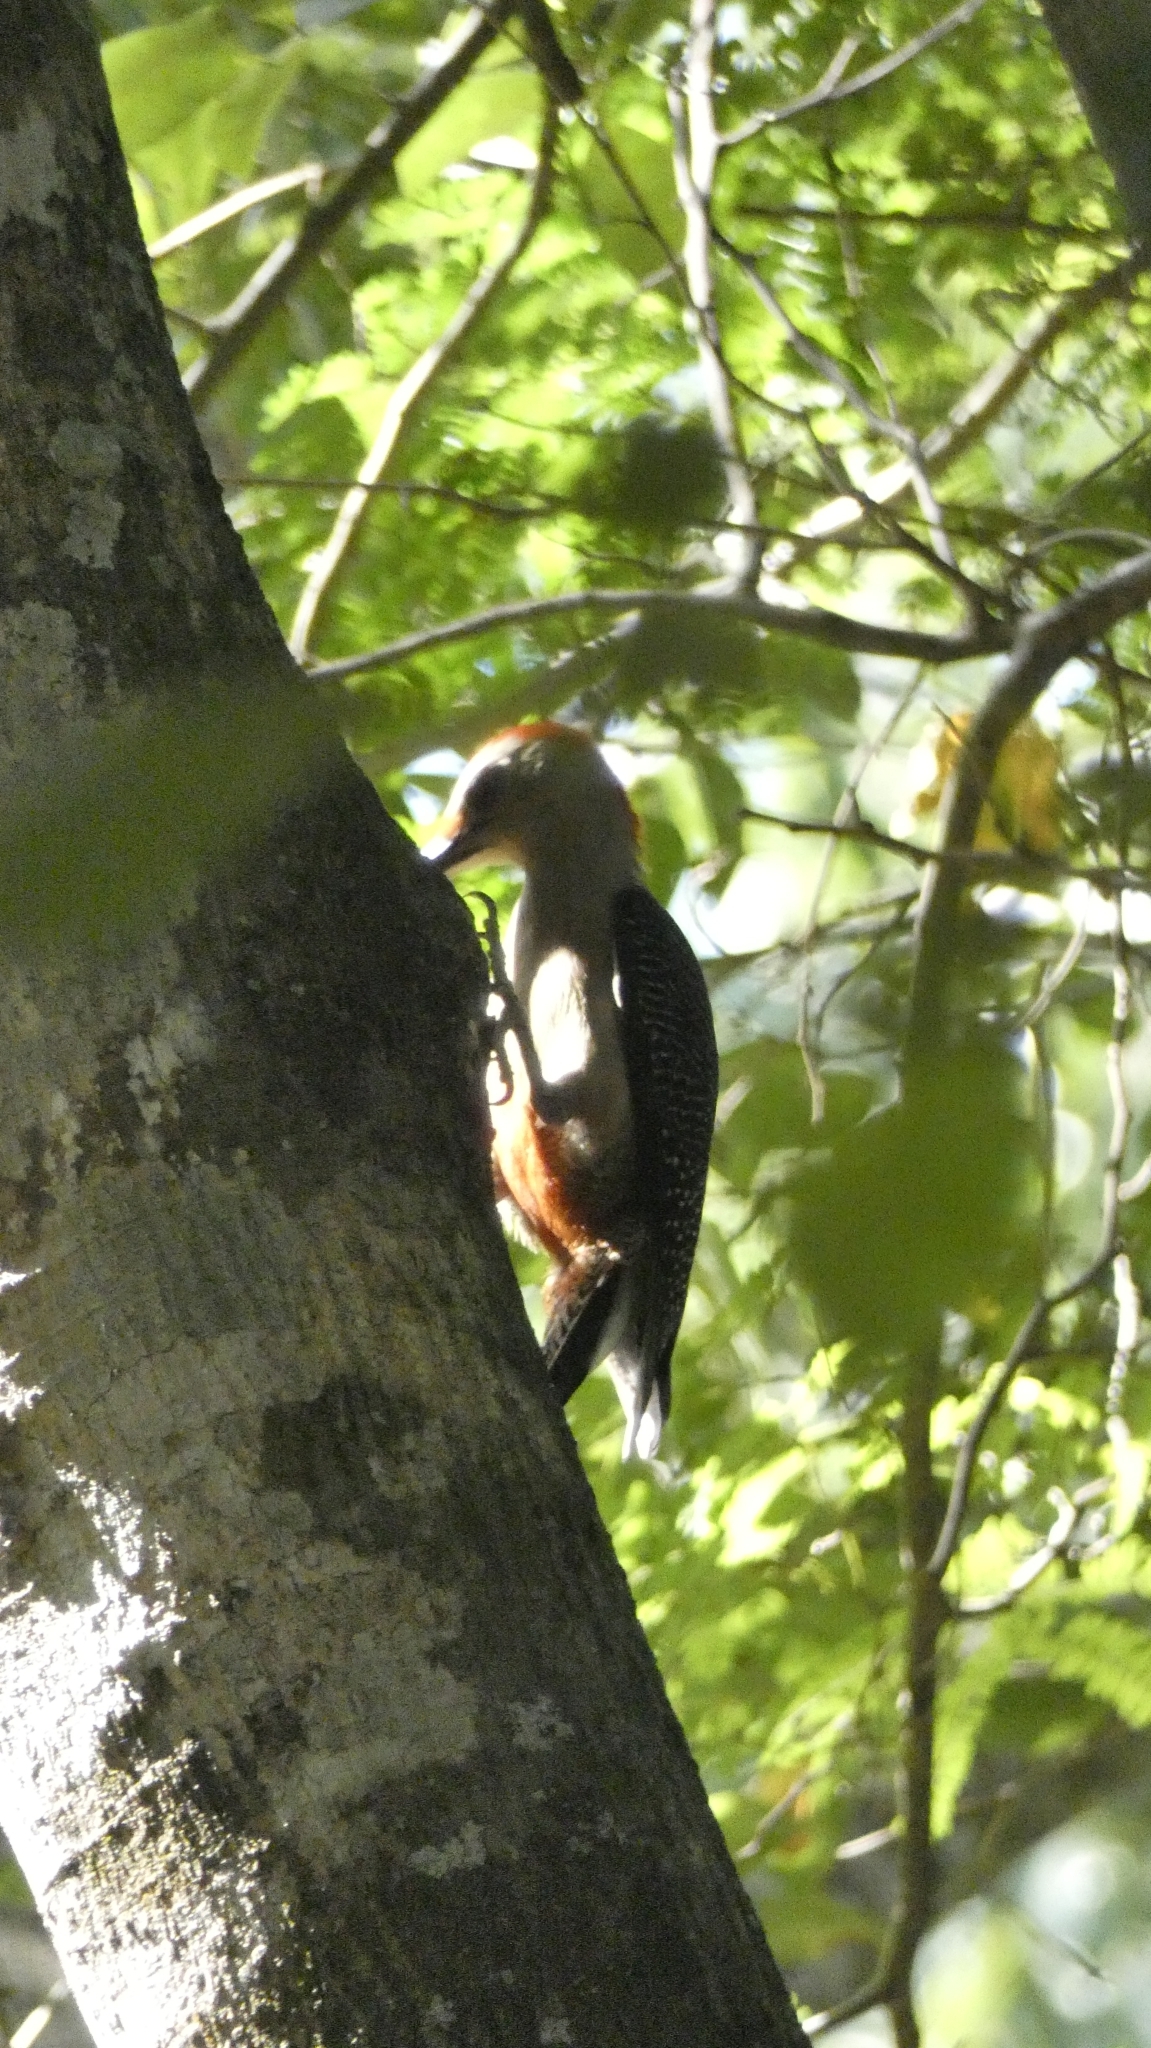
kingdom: Animalia
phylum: Chordata
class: Aves
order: Piciformes
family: Picidae
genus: Melanerpes
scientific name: Melanerpes aurifrons
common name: Golden-fronted woodpecker
